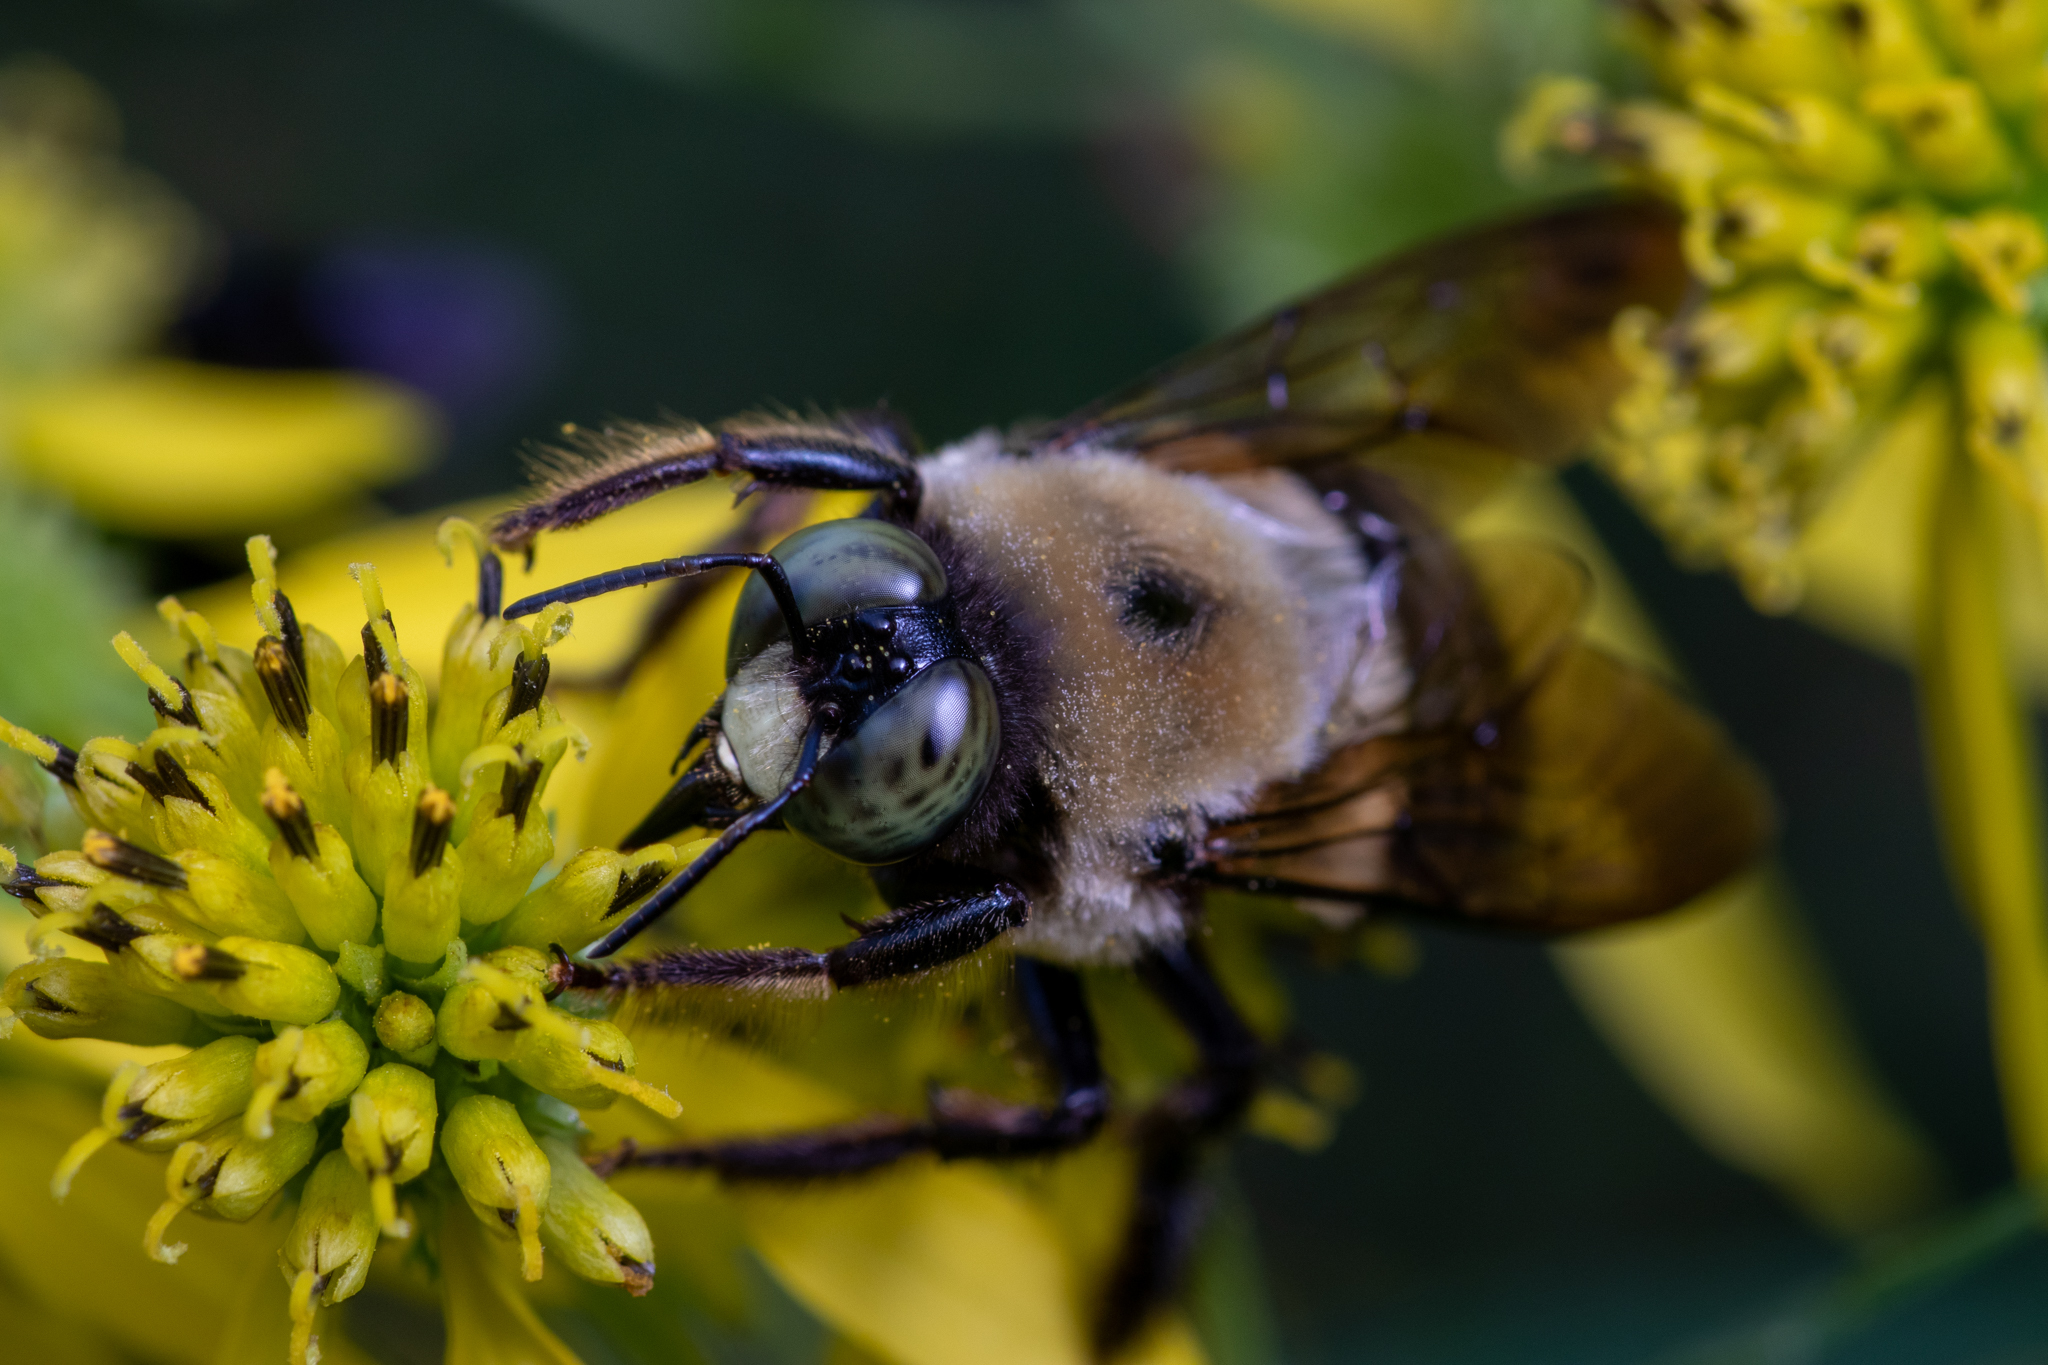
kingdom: Animalia
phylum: Arthropoda
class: Insecta
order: Hymenoptera
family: Apidae
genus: Xylocopa
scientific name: Xylocopa virginica
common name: Carpenter bee
